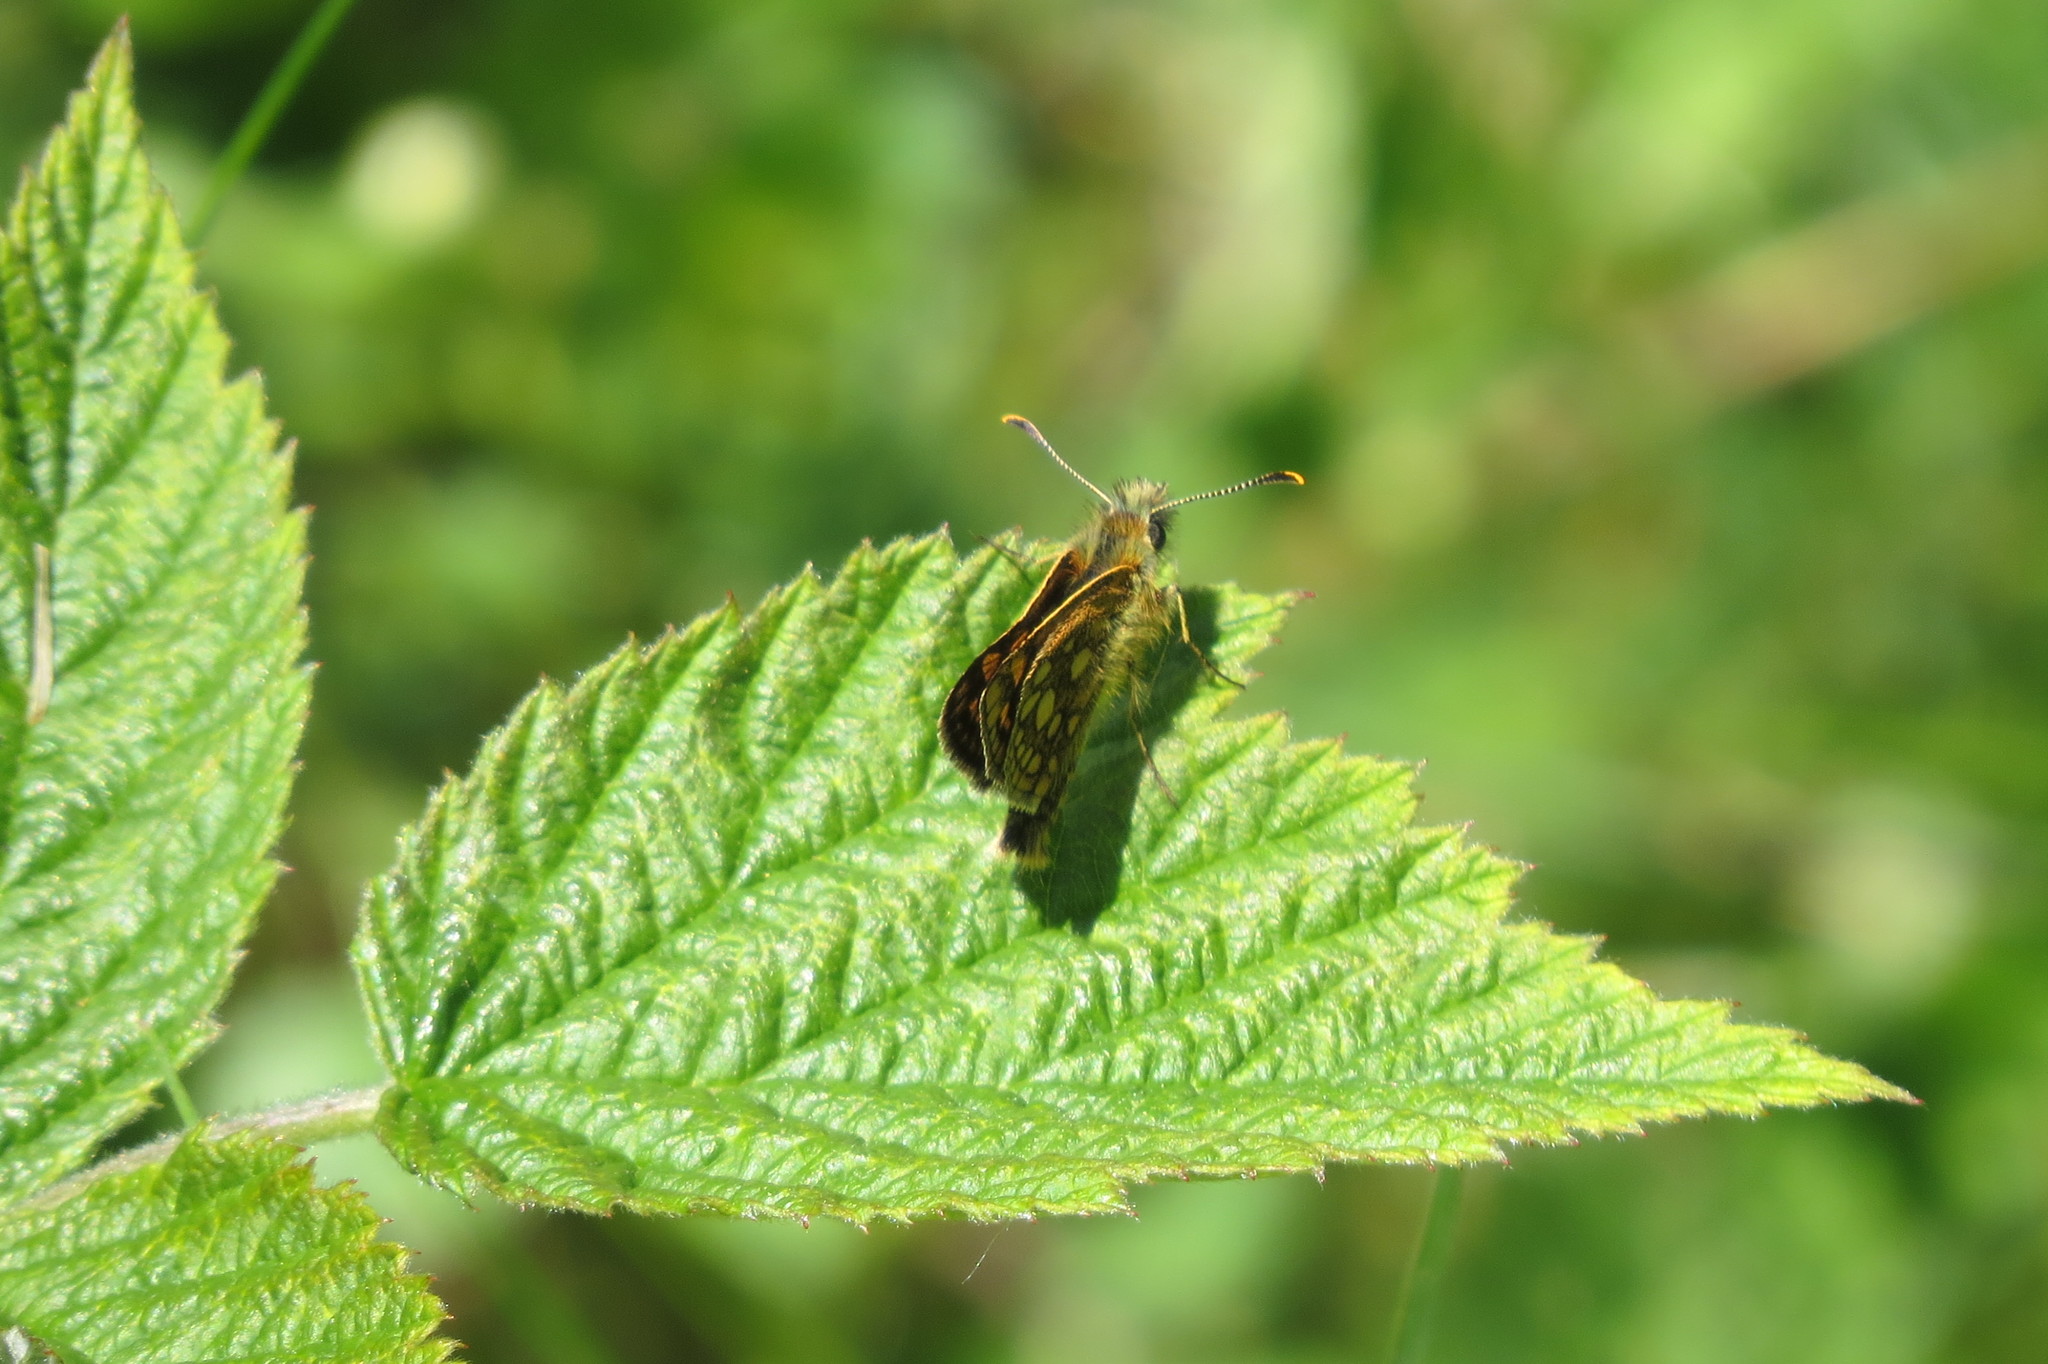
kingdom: Animalia
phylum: Arthropoda
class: Insecta
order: Lepidoptera
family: Hesperiidae
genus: Carterocephalus
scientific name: Carterocephalus palaemon
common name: Chequered skipper
